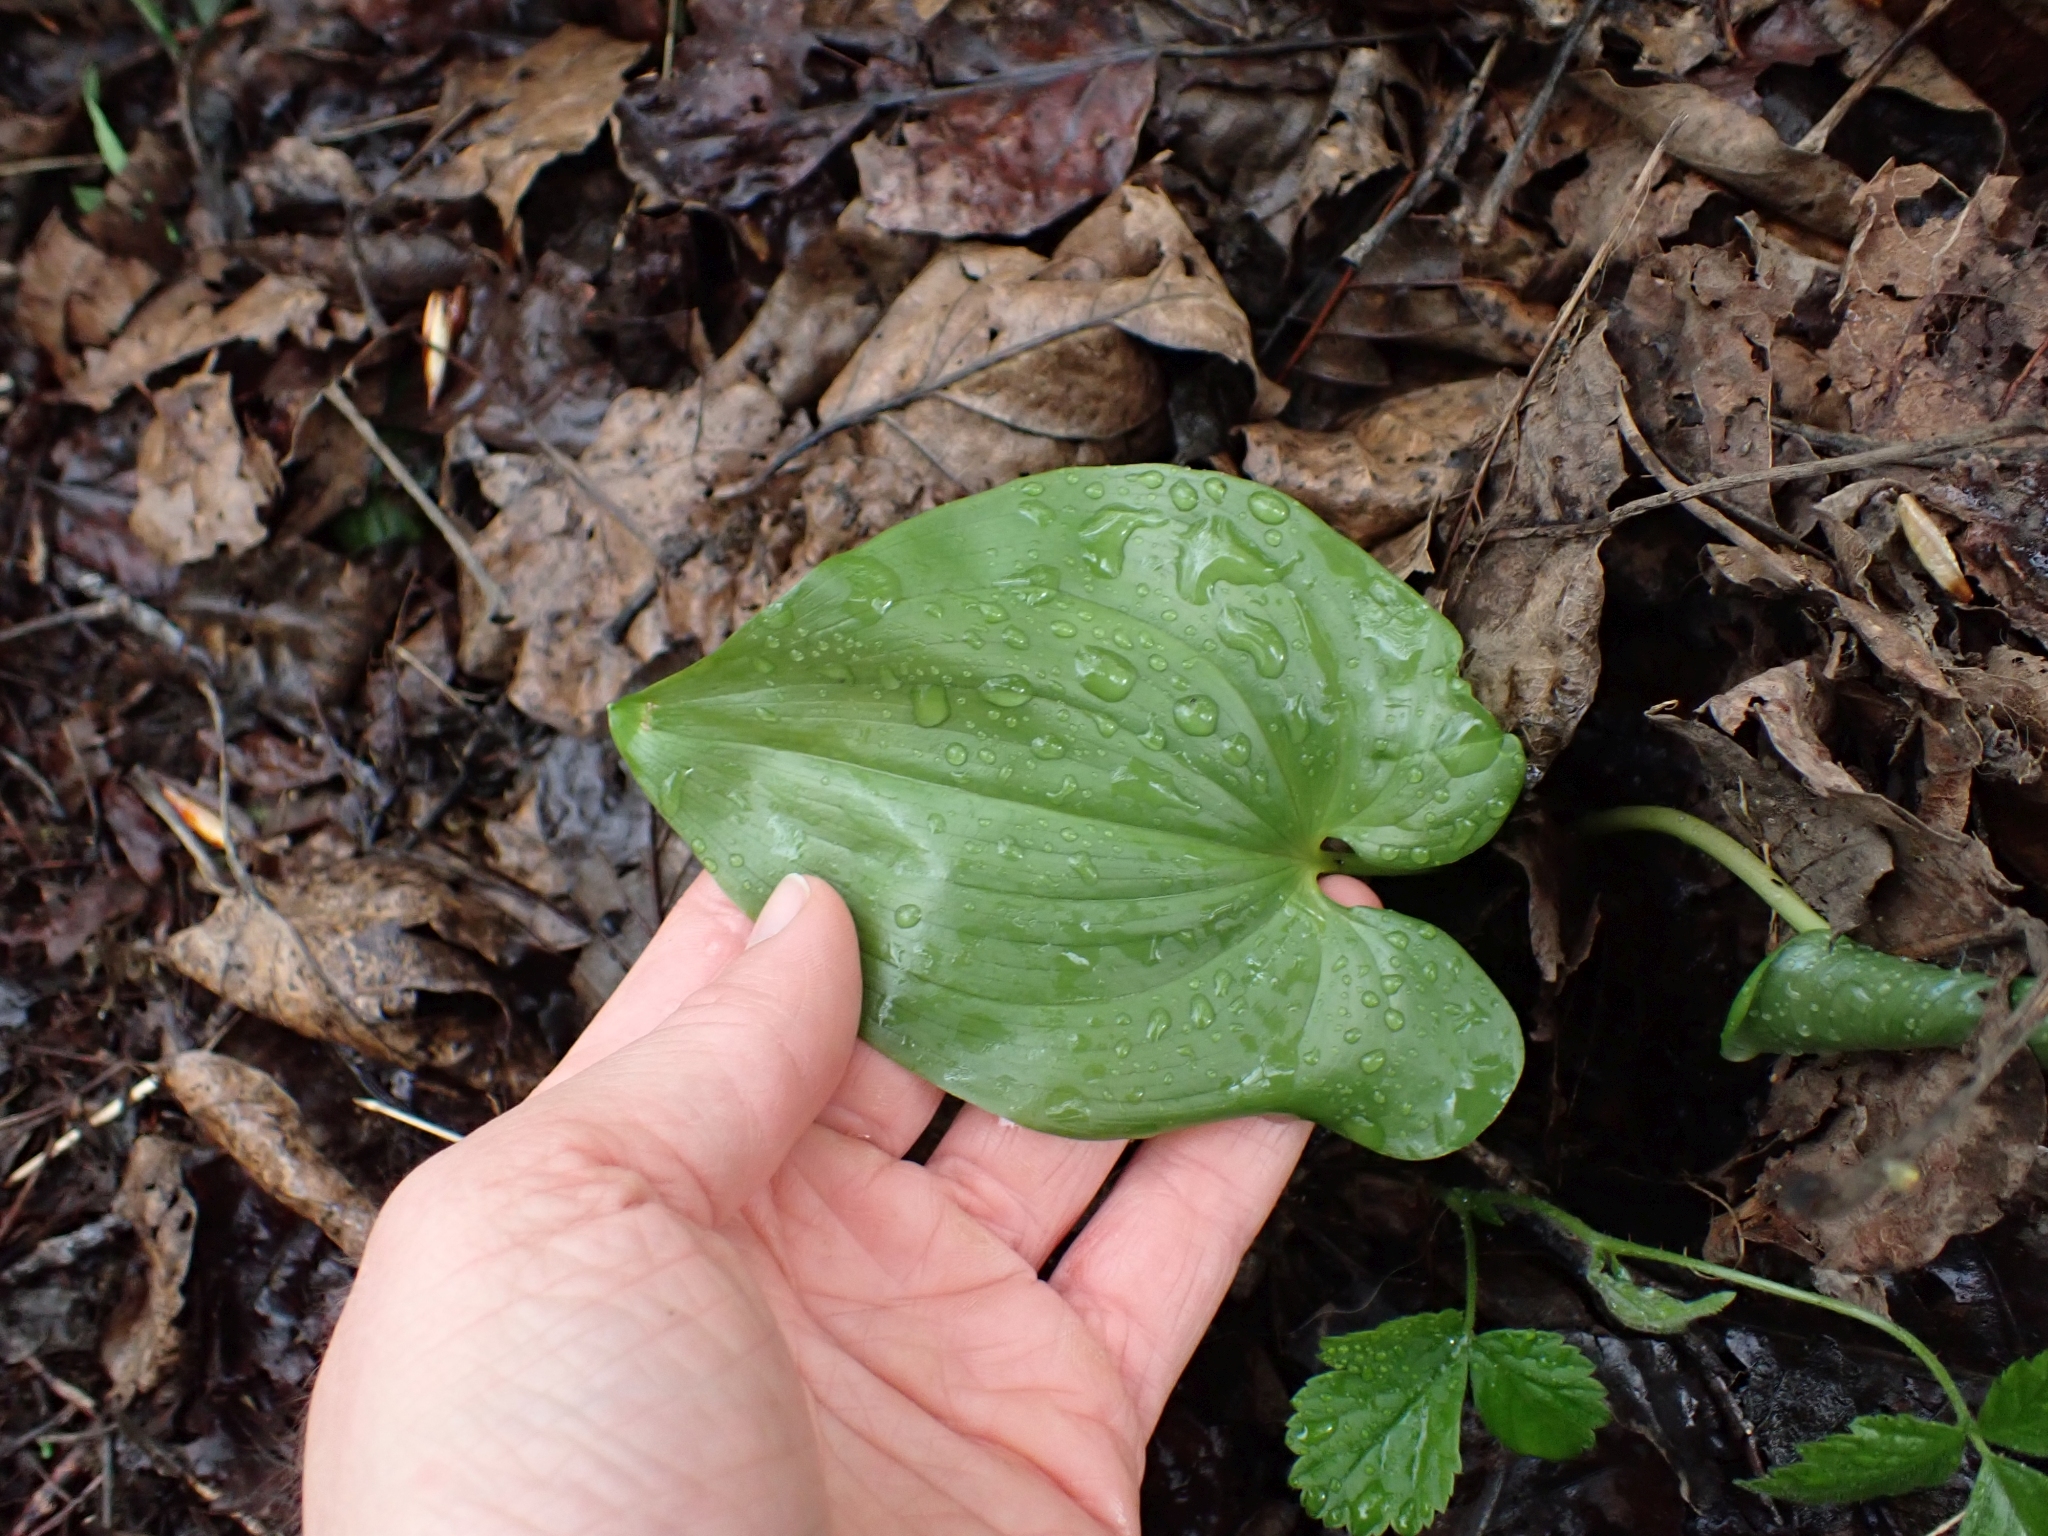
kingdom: Plantae
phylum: Tracheophyta
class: Liliopsida
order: Asparagales
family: Asparagaceae
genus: Maianthemum
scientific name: Maianthemum dilatatum
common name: False lily-of-the-valley
